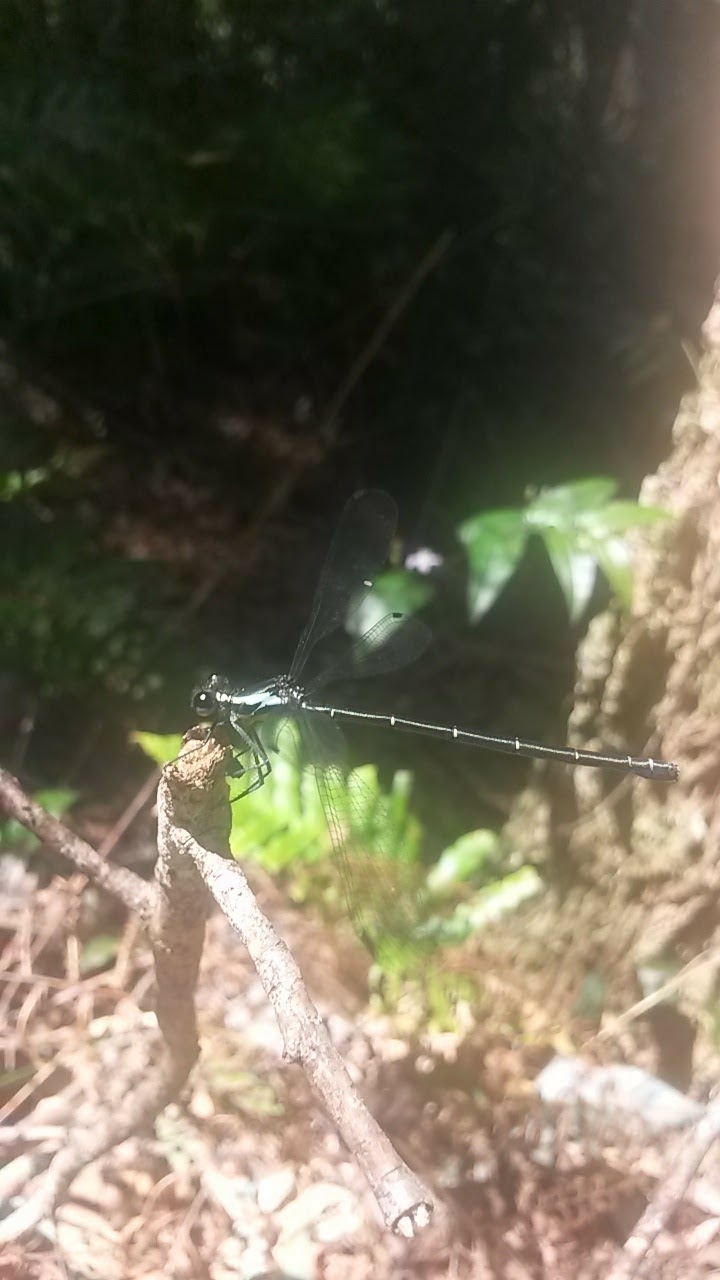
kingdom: Animalia
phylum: Arthropoda
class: Insecta
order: Odonata
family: Argiolestidae
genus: Austroargiolestes
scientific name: Austroargiolestes icteromelas
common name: Common flatwing
